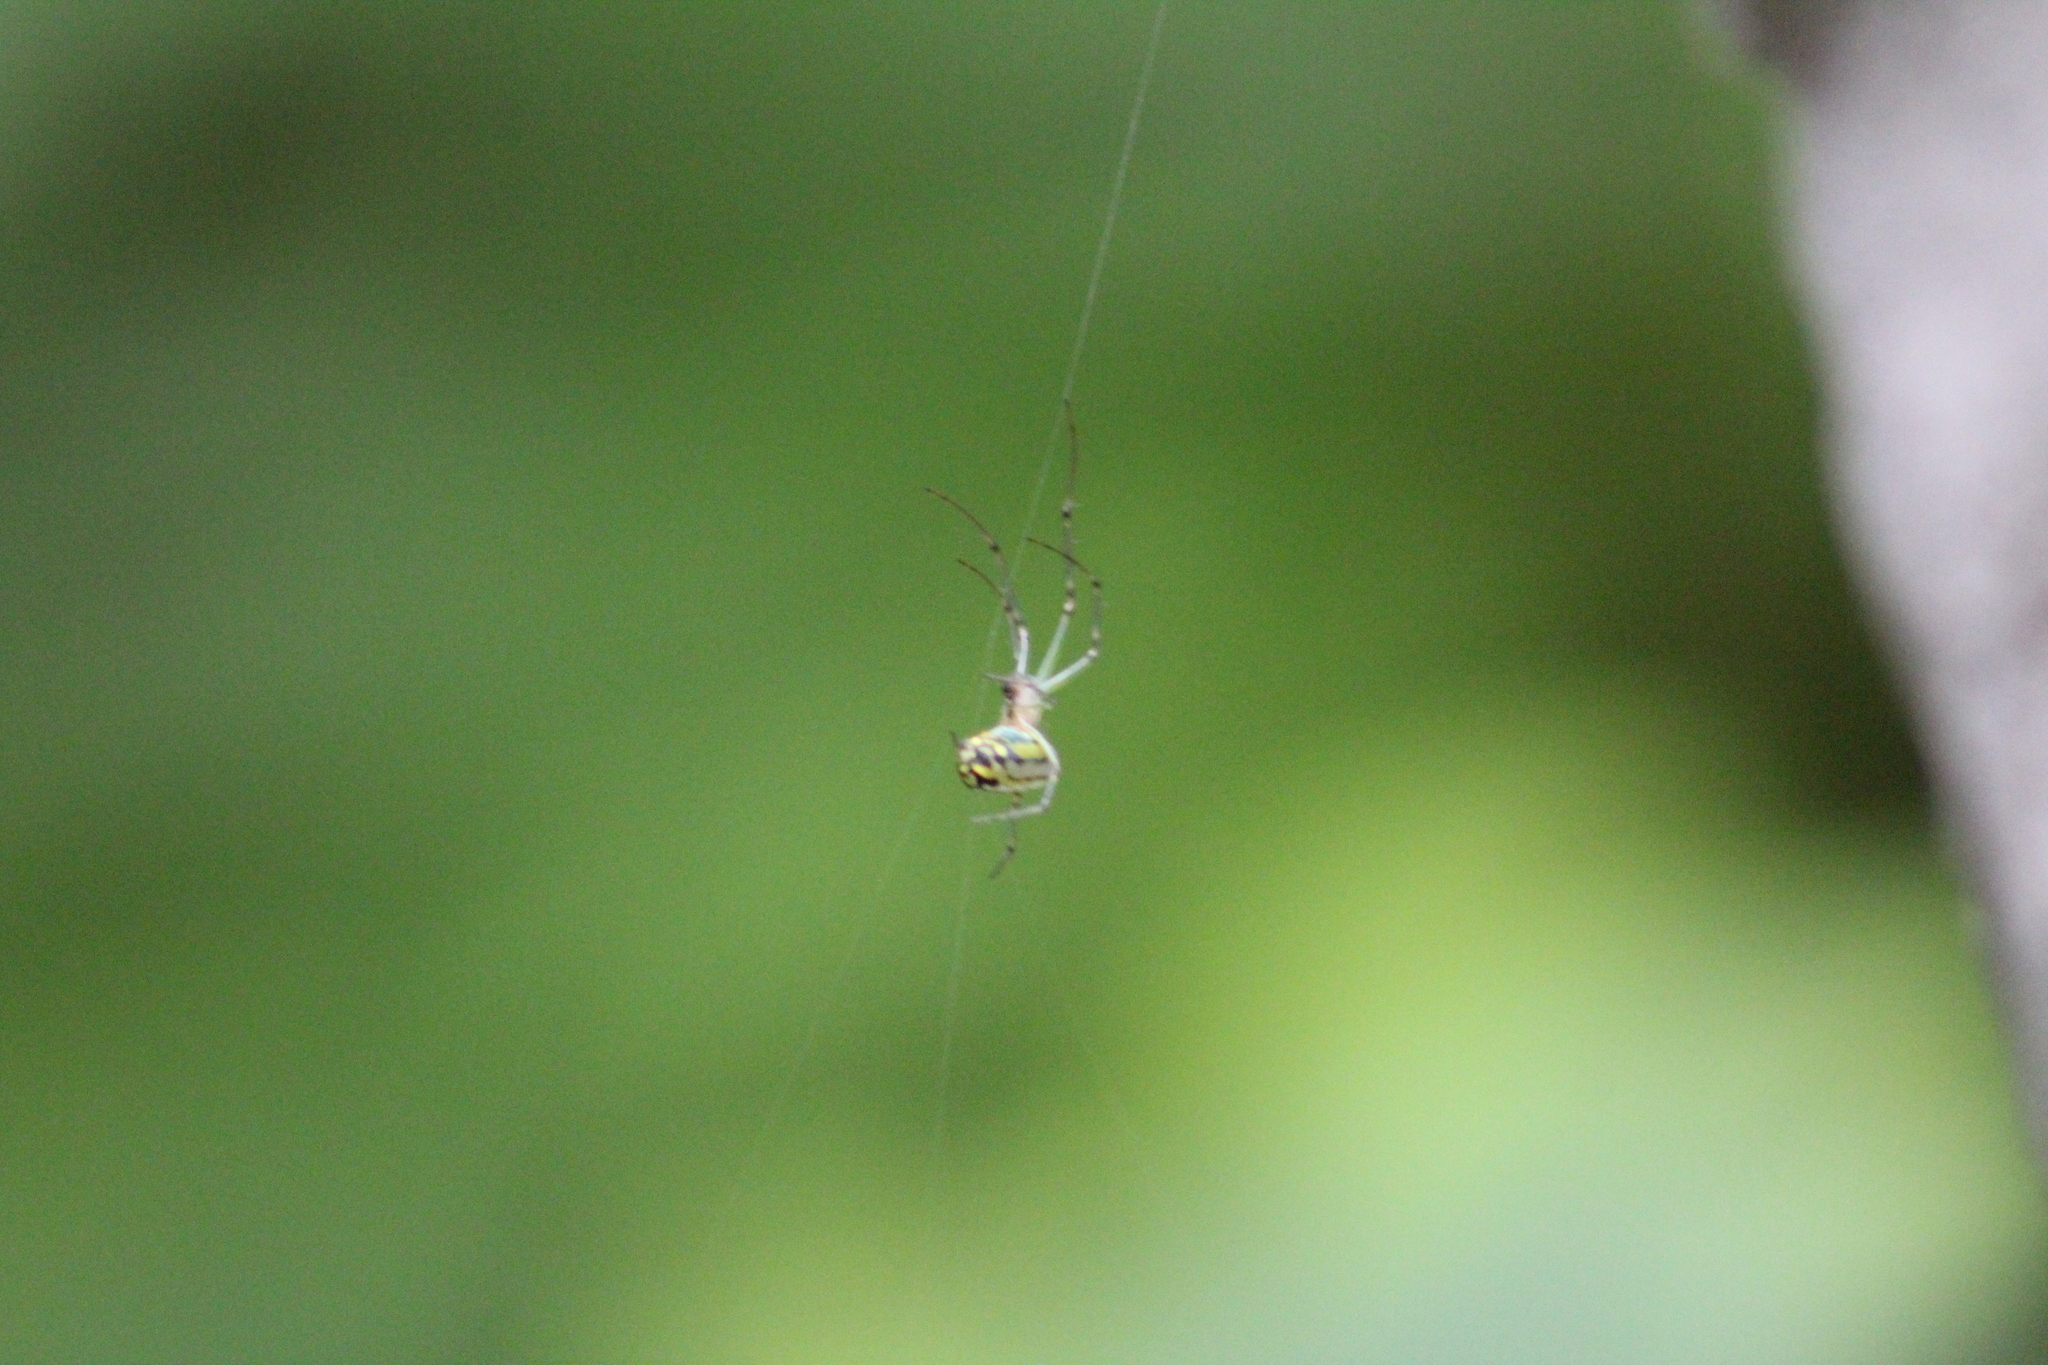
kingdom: Animalia
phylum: Arthropoda
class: Arachnida
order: Araneae
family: Tetragnathidae
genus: Leucauge
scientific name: Leucauge venusta
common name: Longjawed orb weavers
